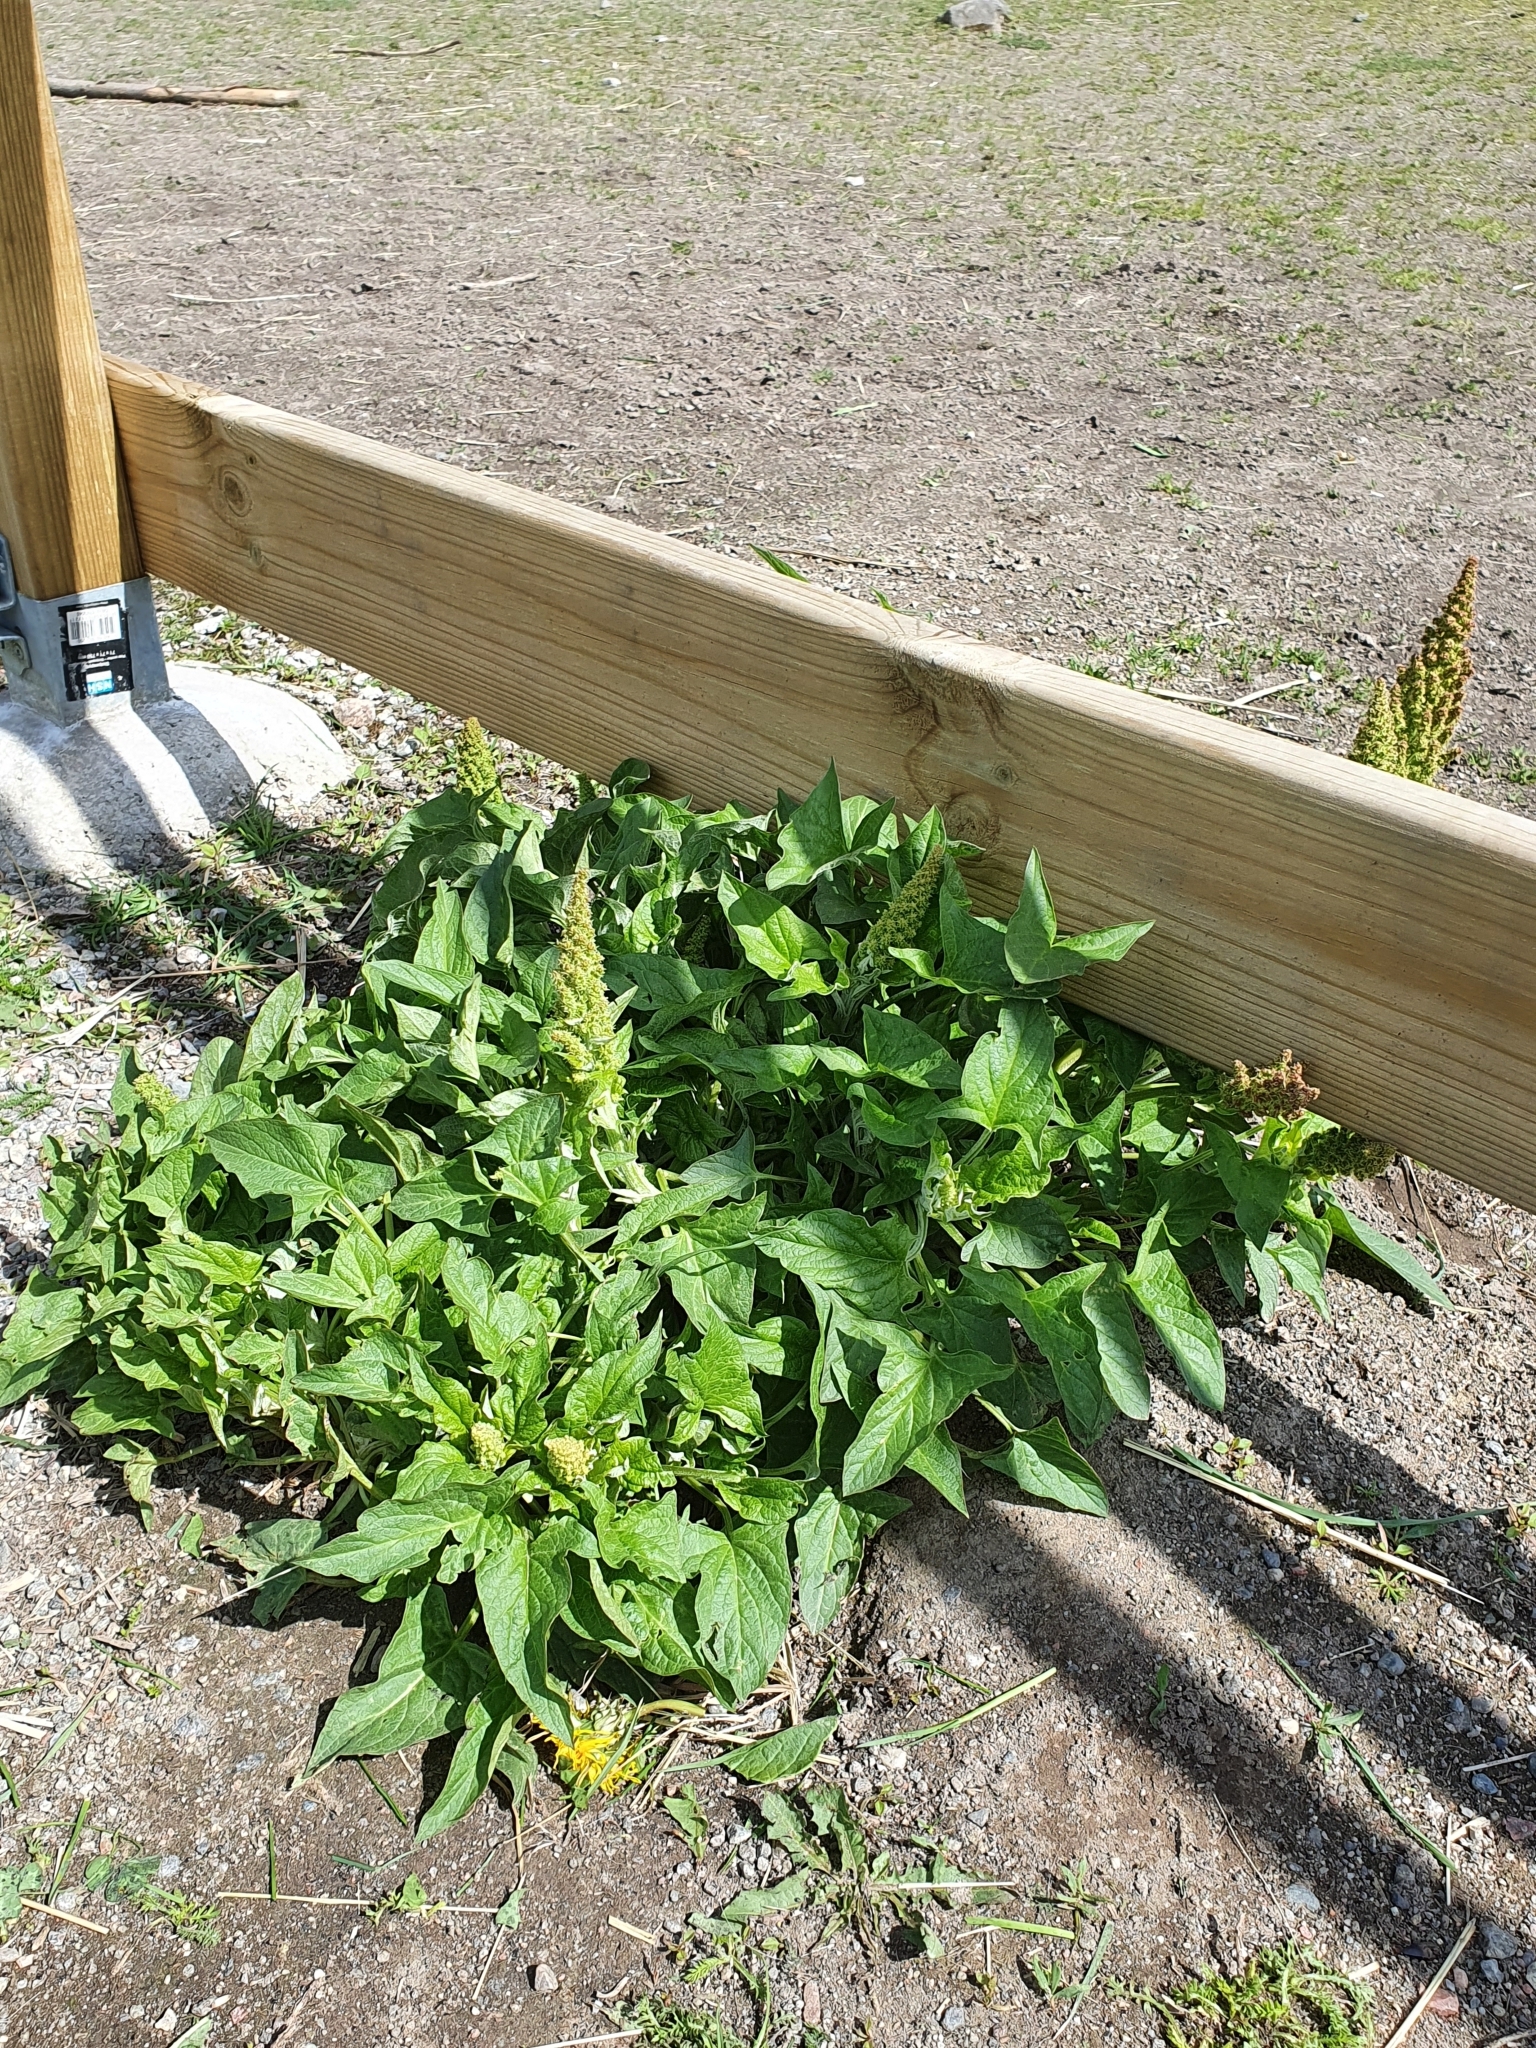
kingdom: Plantae
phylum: Tracheophyta
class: Magnoliopsida
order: Caryophyllales
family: Amaranthaceae
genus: Blitum
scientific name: Blitum bonus-henricus
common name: Good king henry
